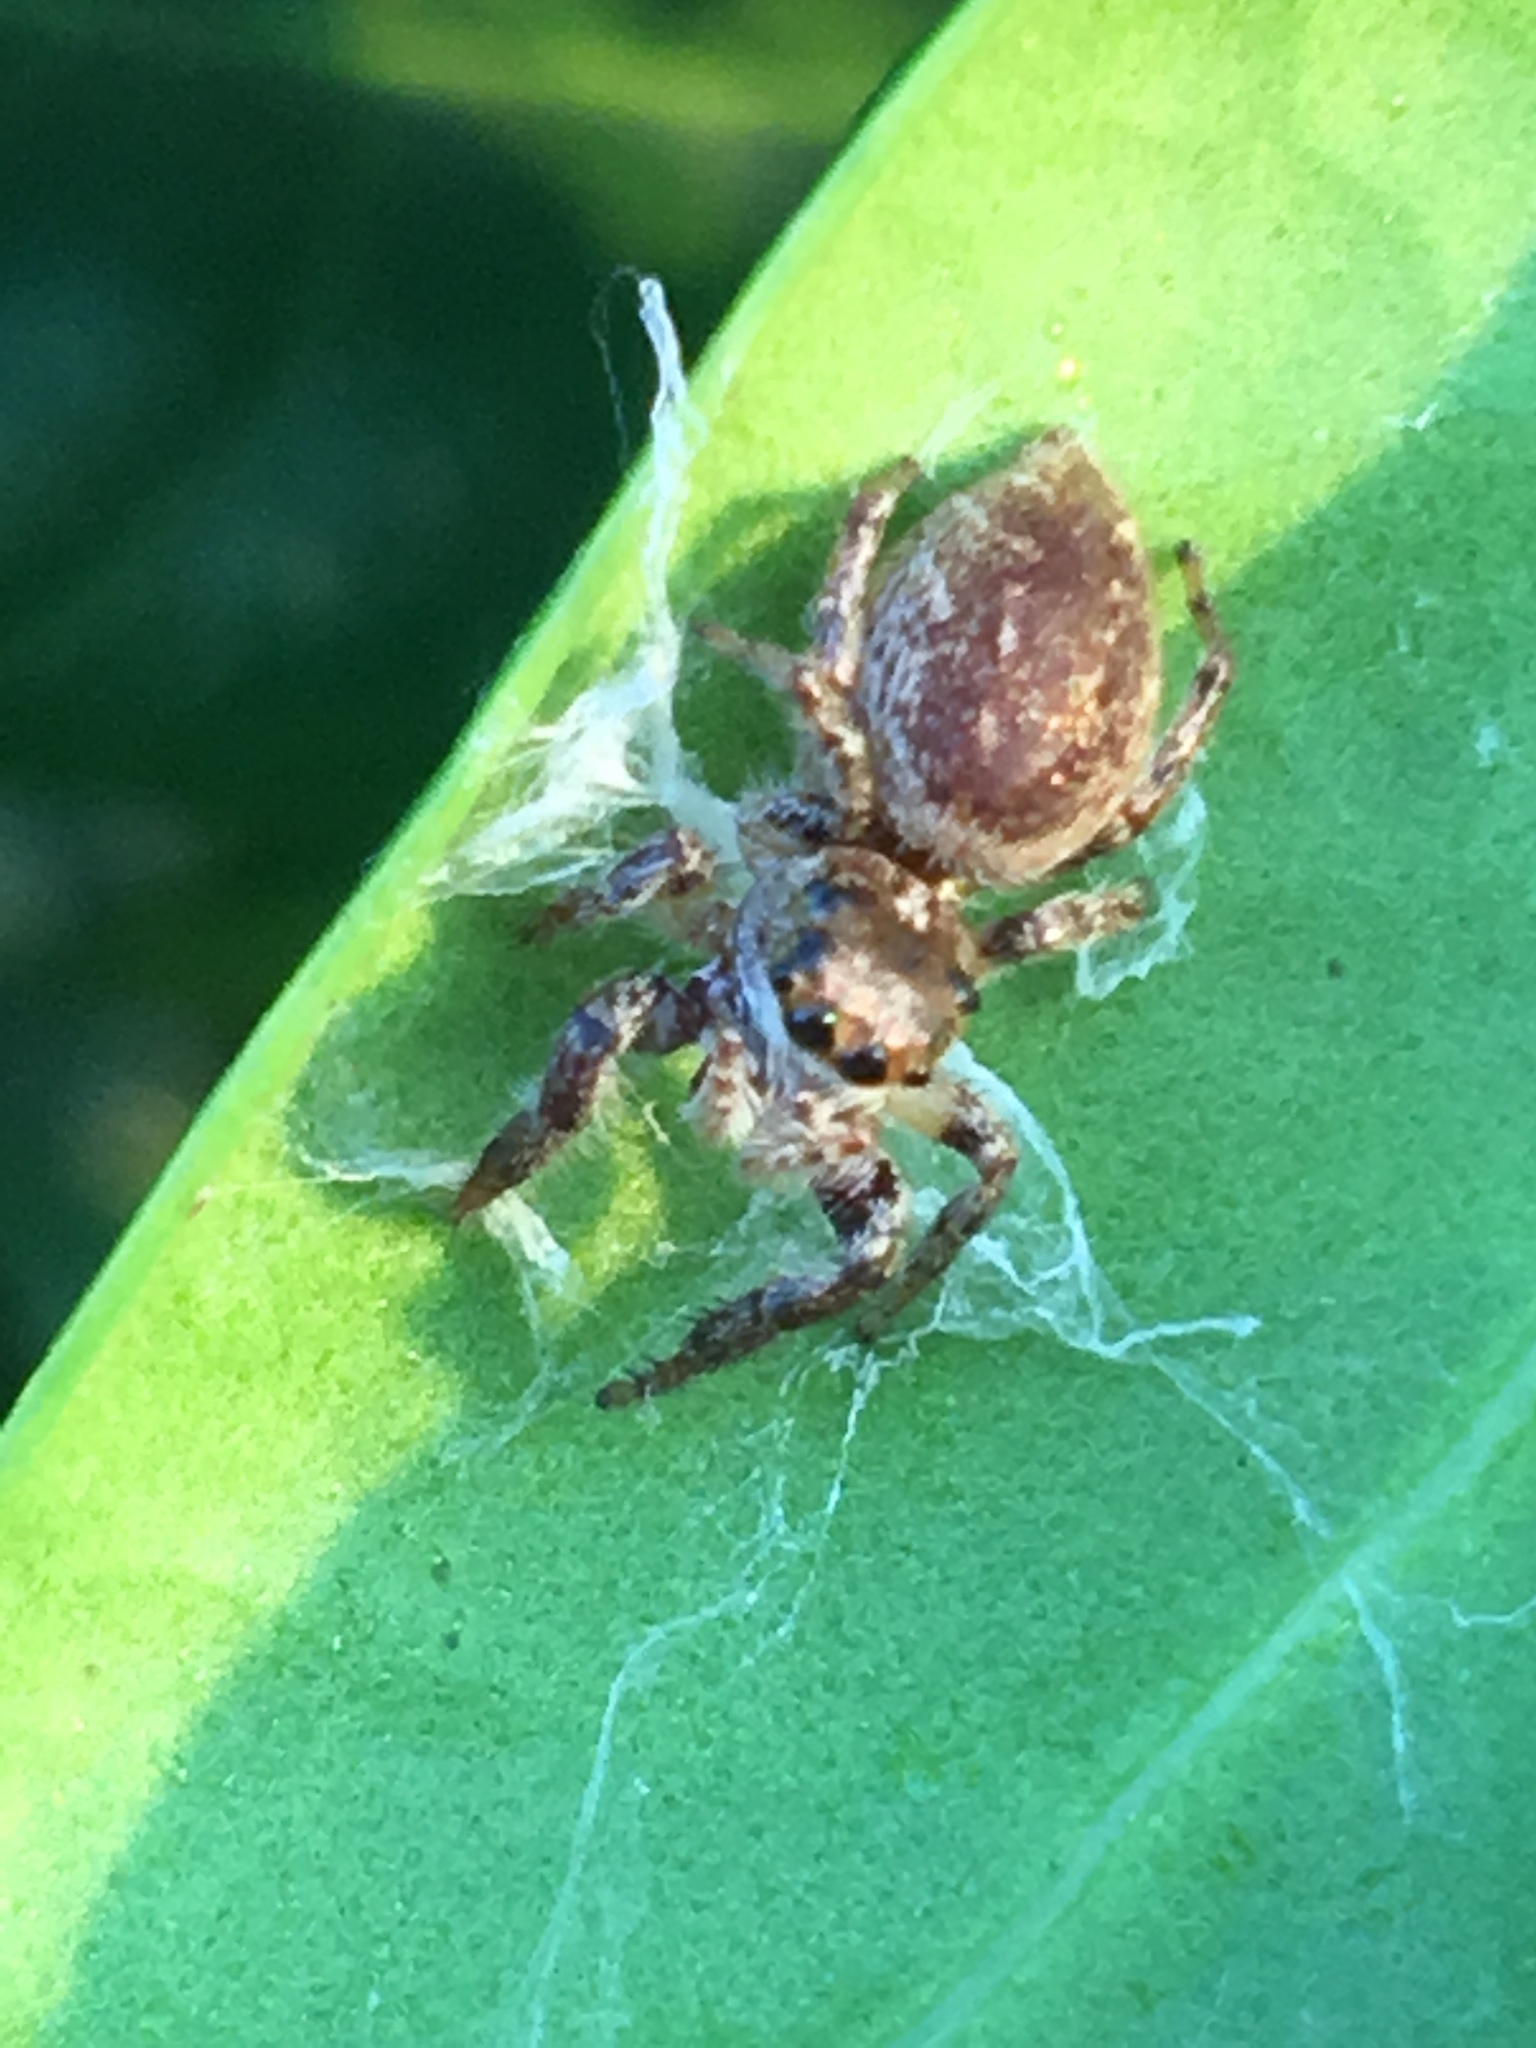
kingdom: Animalia
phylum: Arthropoda
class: Arachnida
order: Araneae
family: Salticidae
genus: Eris
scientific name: Eris militaris
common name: Bronze jumper
